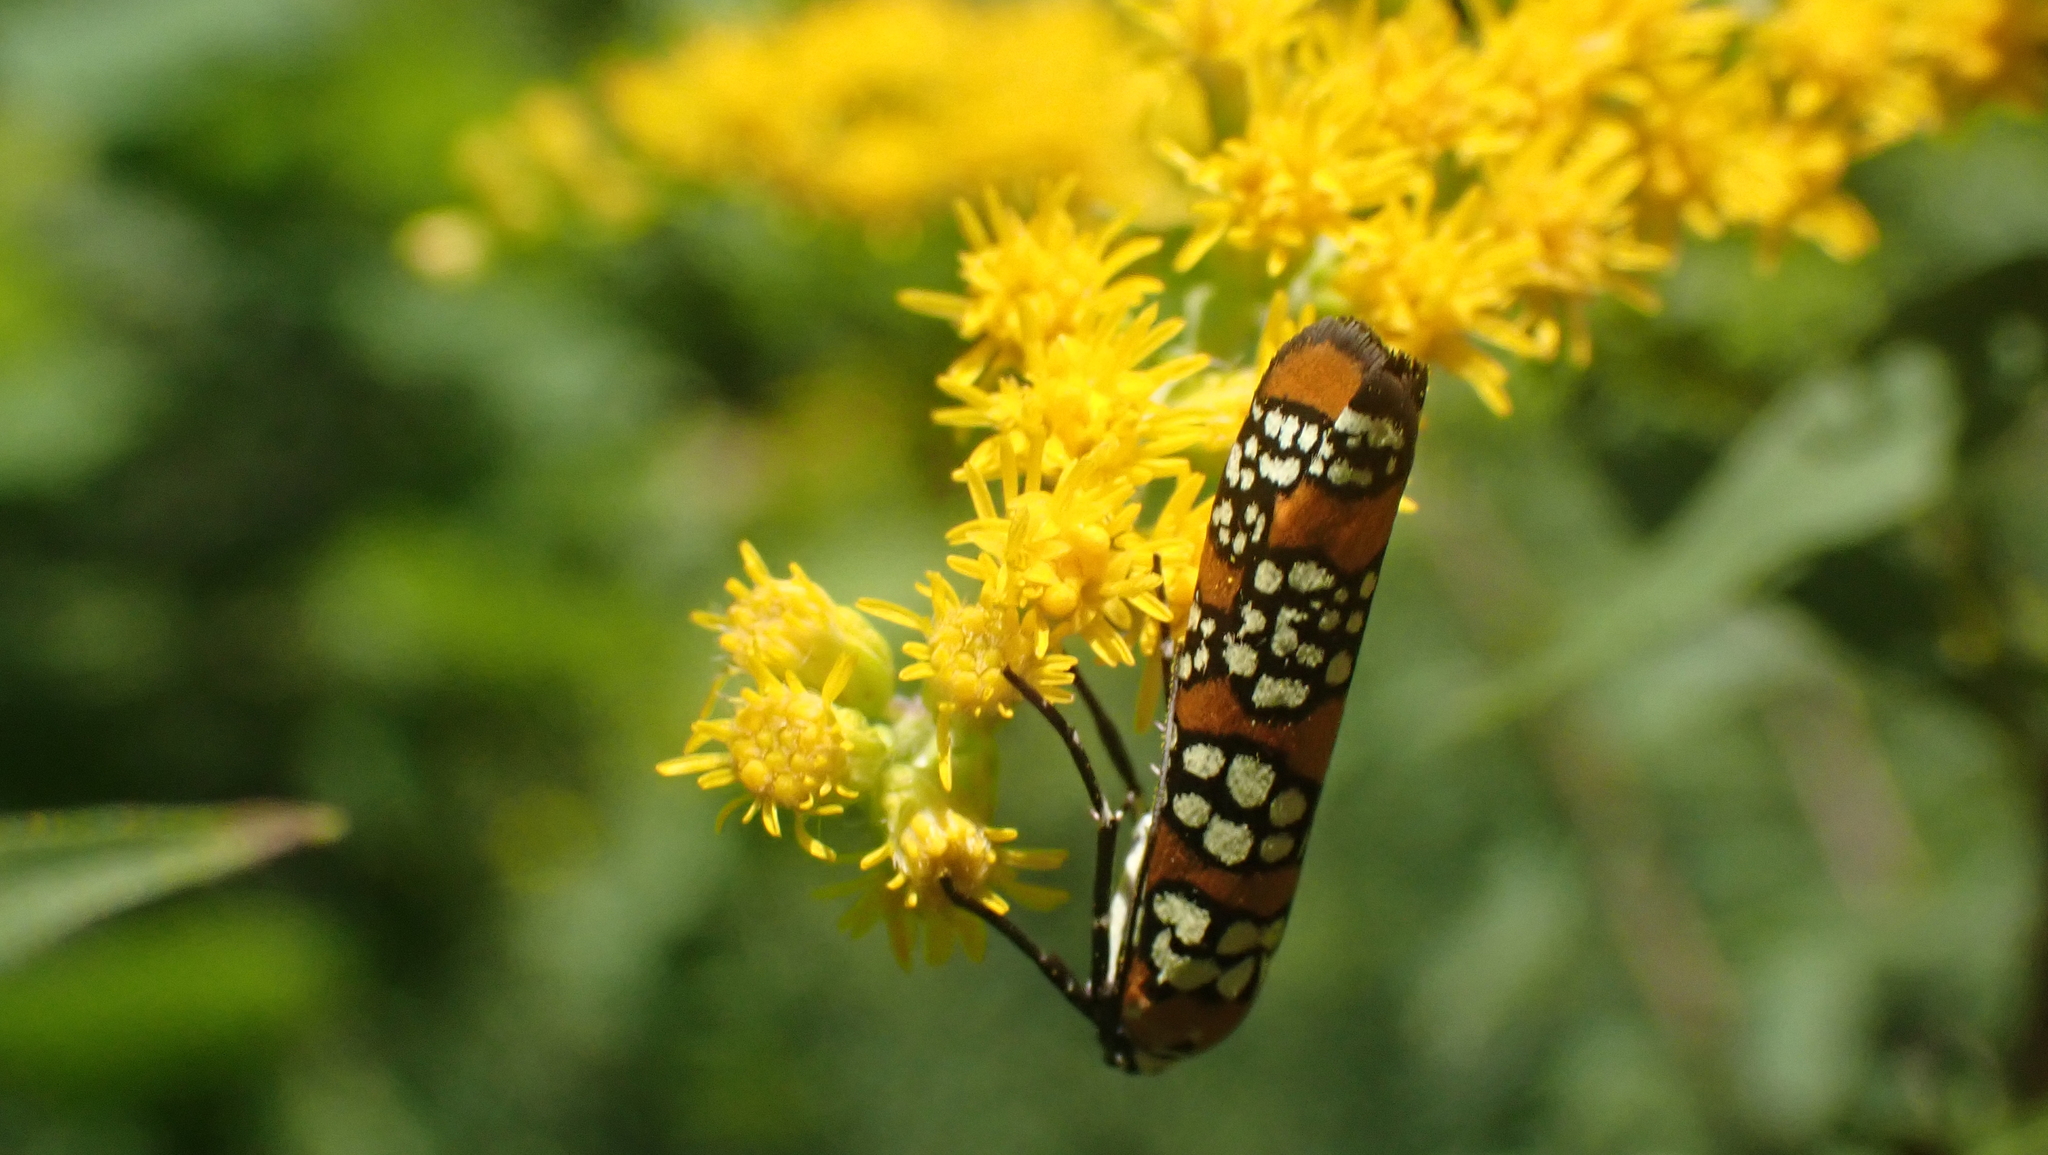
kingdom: Animalia
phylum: Arthropoda
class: Insecta
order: Lepidoptera
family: Attevidae
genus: Atteva
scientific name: Atteva punctella
